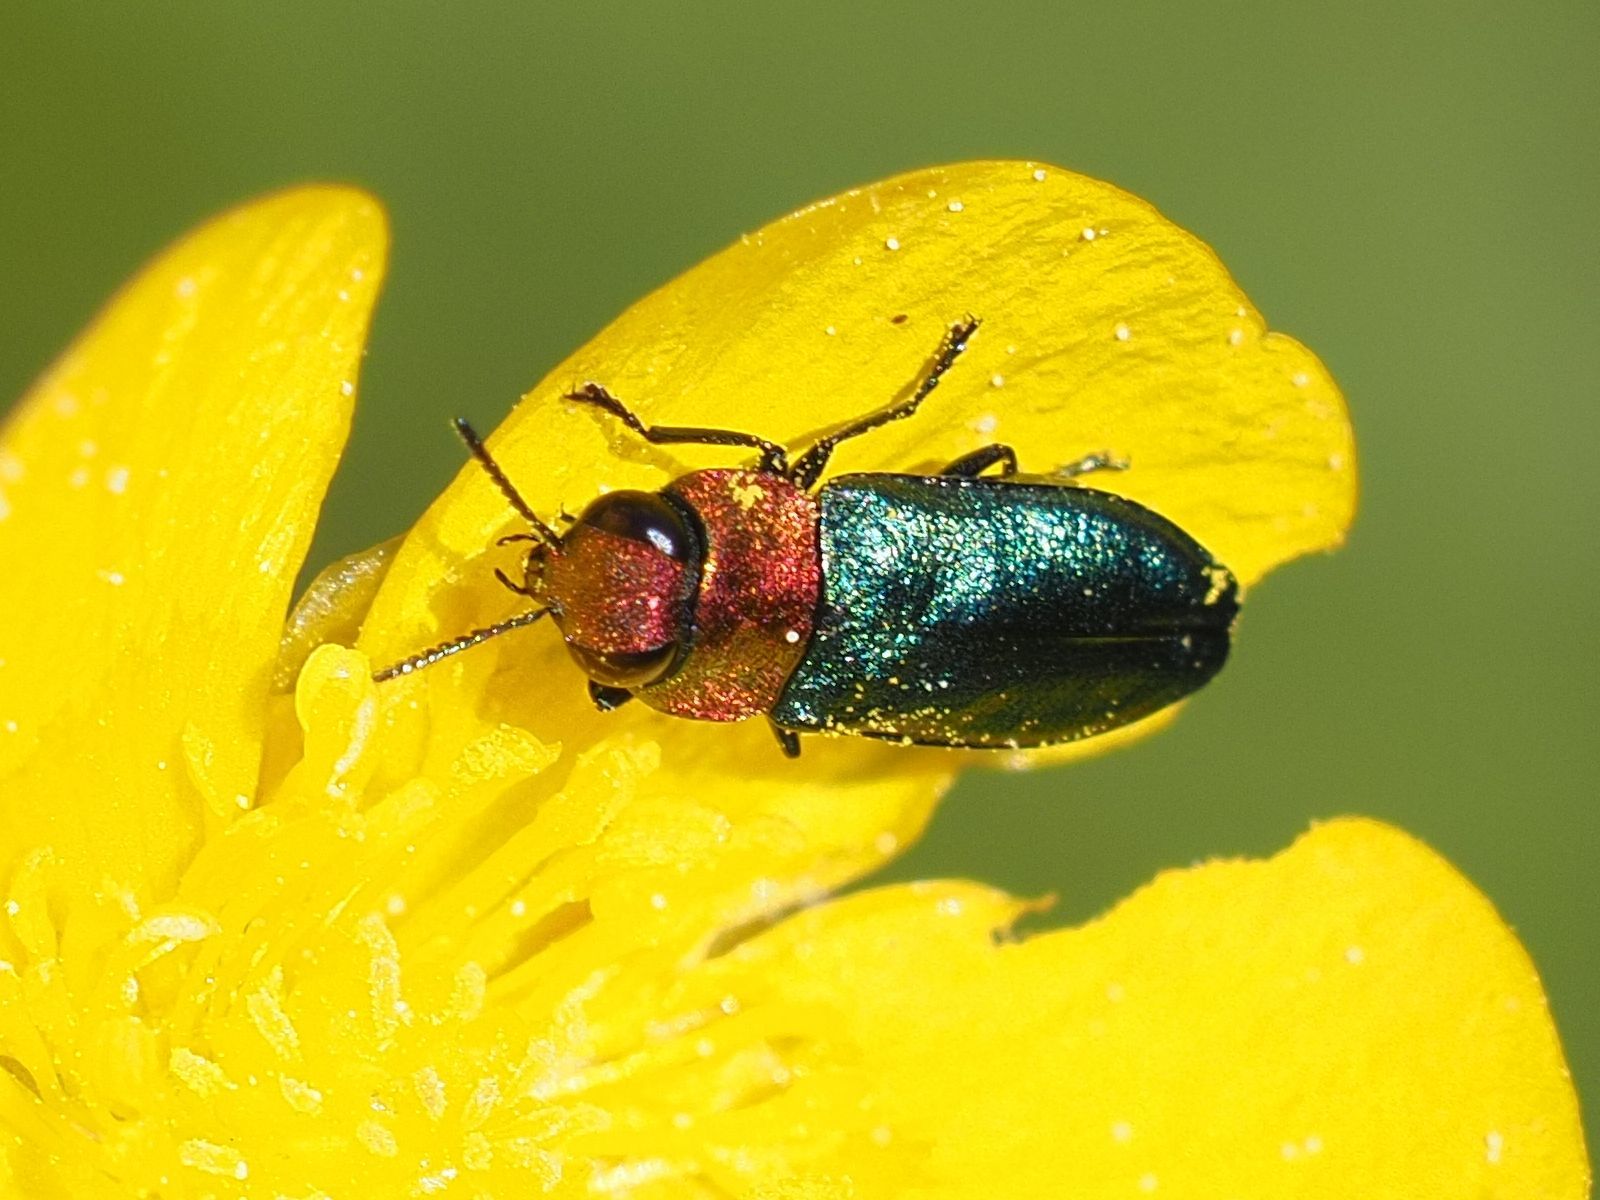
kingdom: Animalia
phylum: Arthropoda
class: Insecta
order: Coleoptera
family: Buprestidae
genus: Anthaxia
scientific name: Anthaxia nitidula
